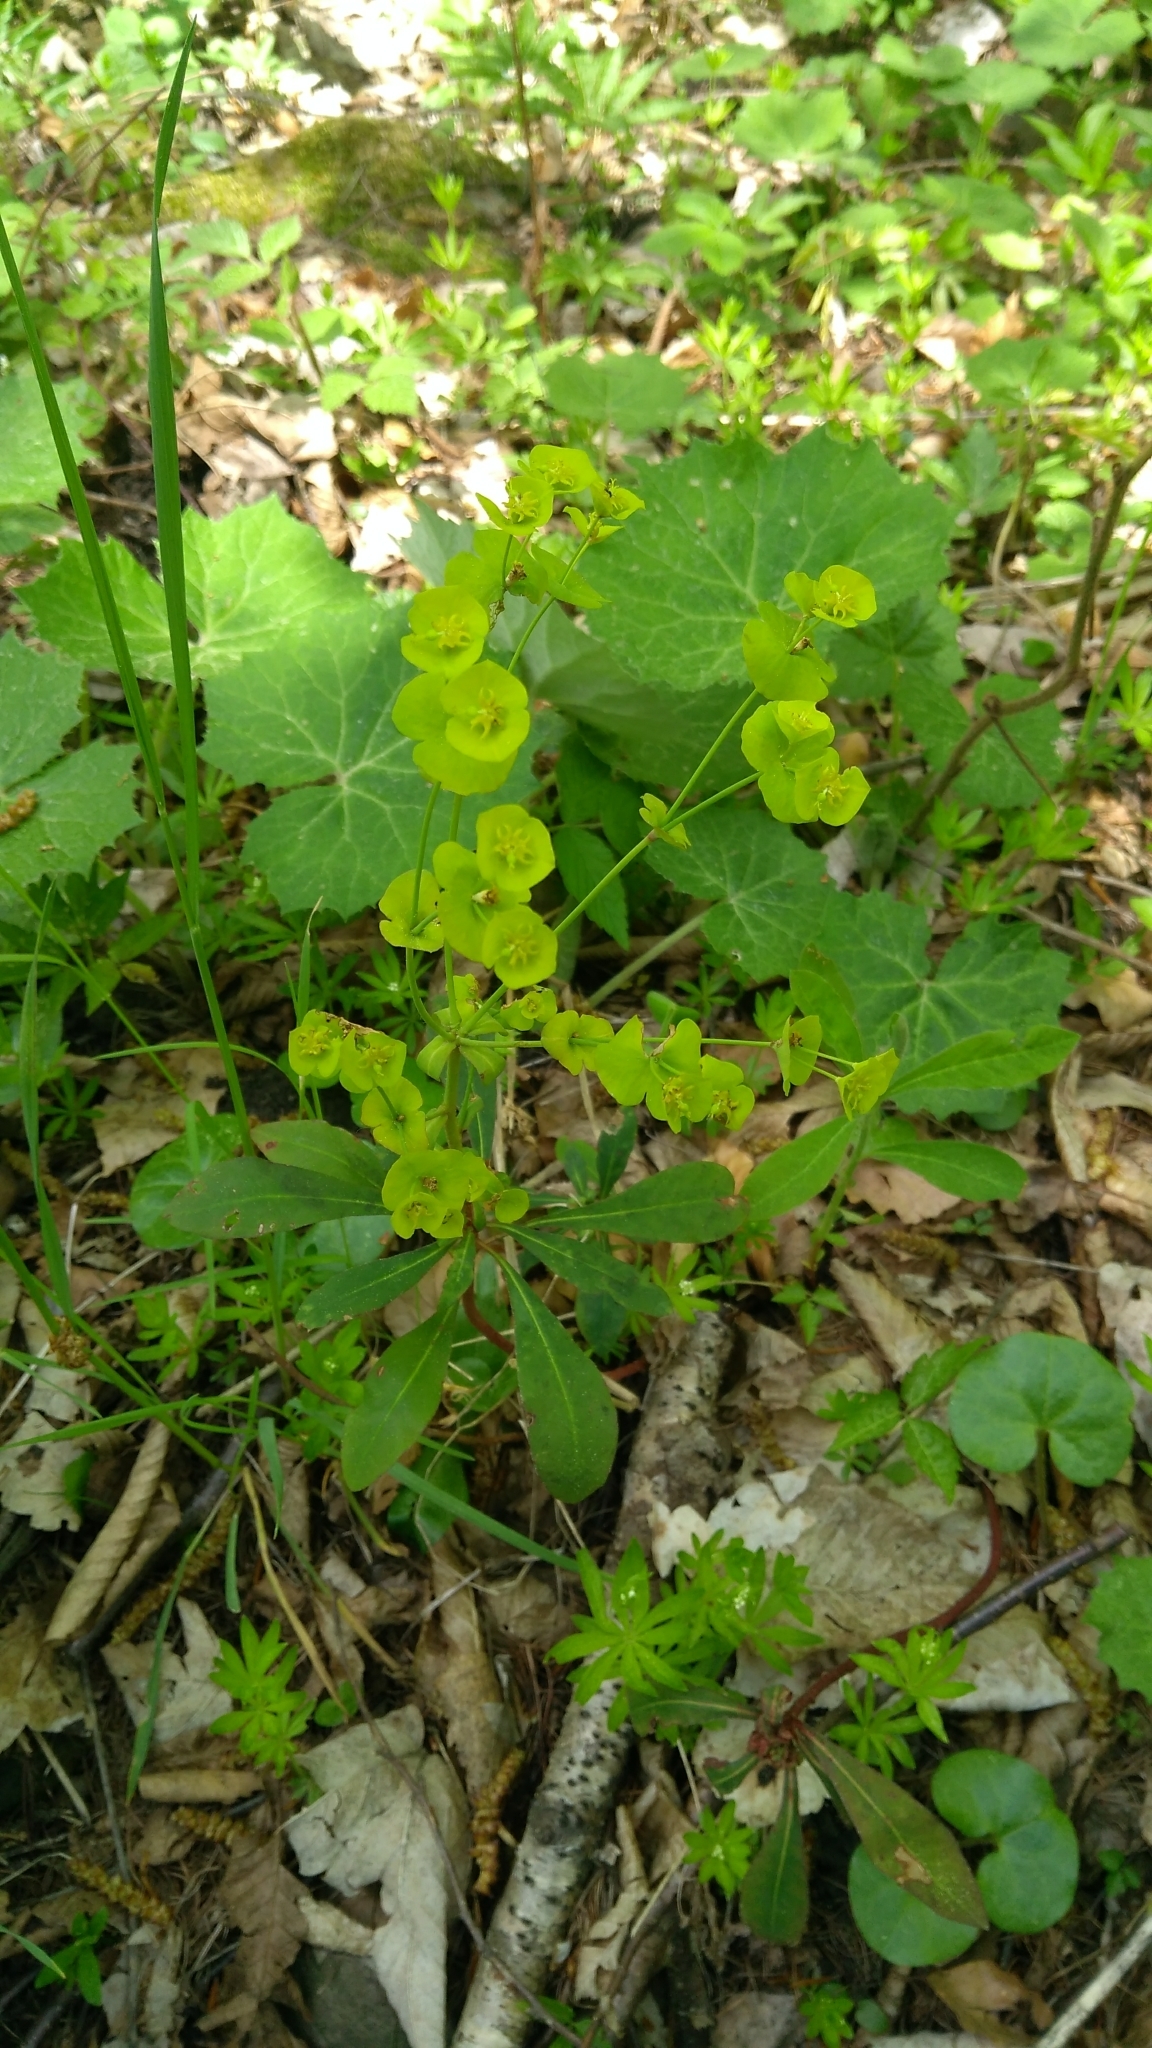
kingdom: Plantae
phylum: Tracheophyta
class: Magnoliopsida
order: Malpighiales
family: Euphorbiaceae
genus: Euphorbia
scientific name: Euphorbia amygdaloides
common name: Wood spurge
